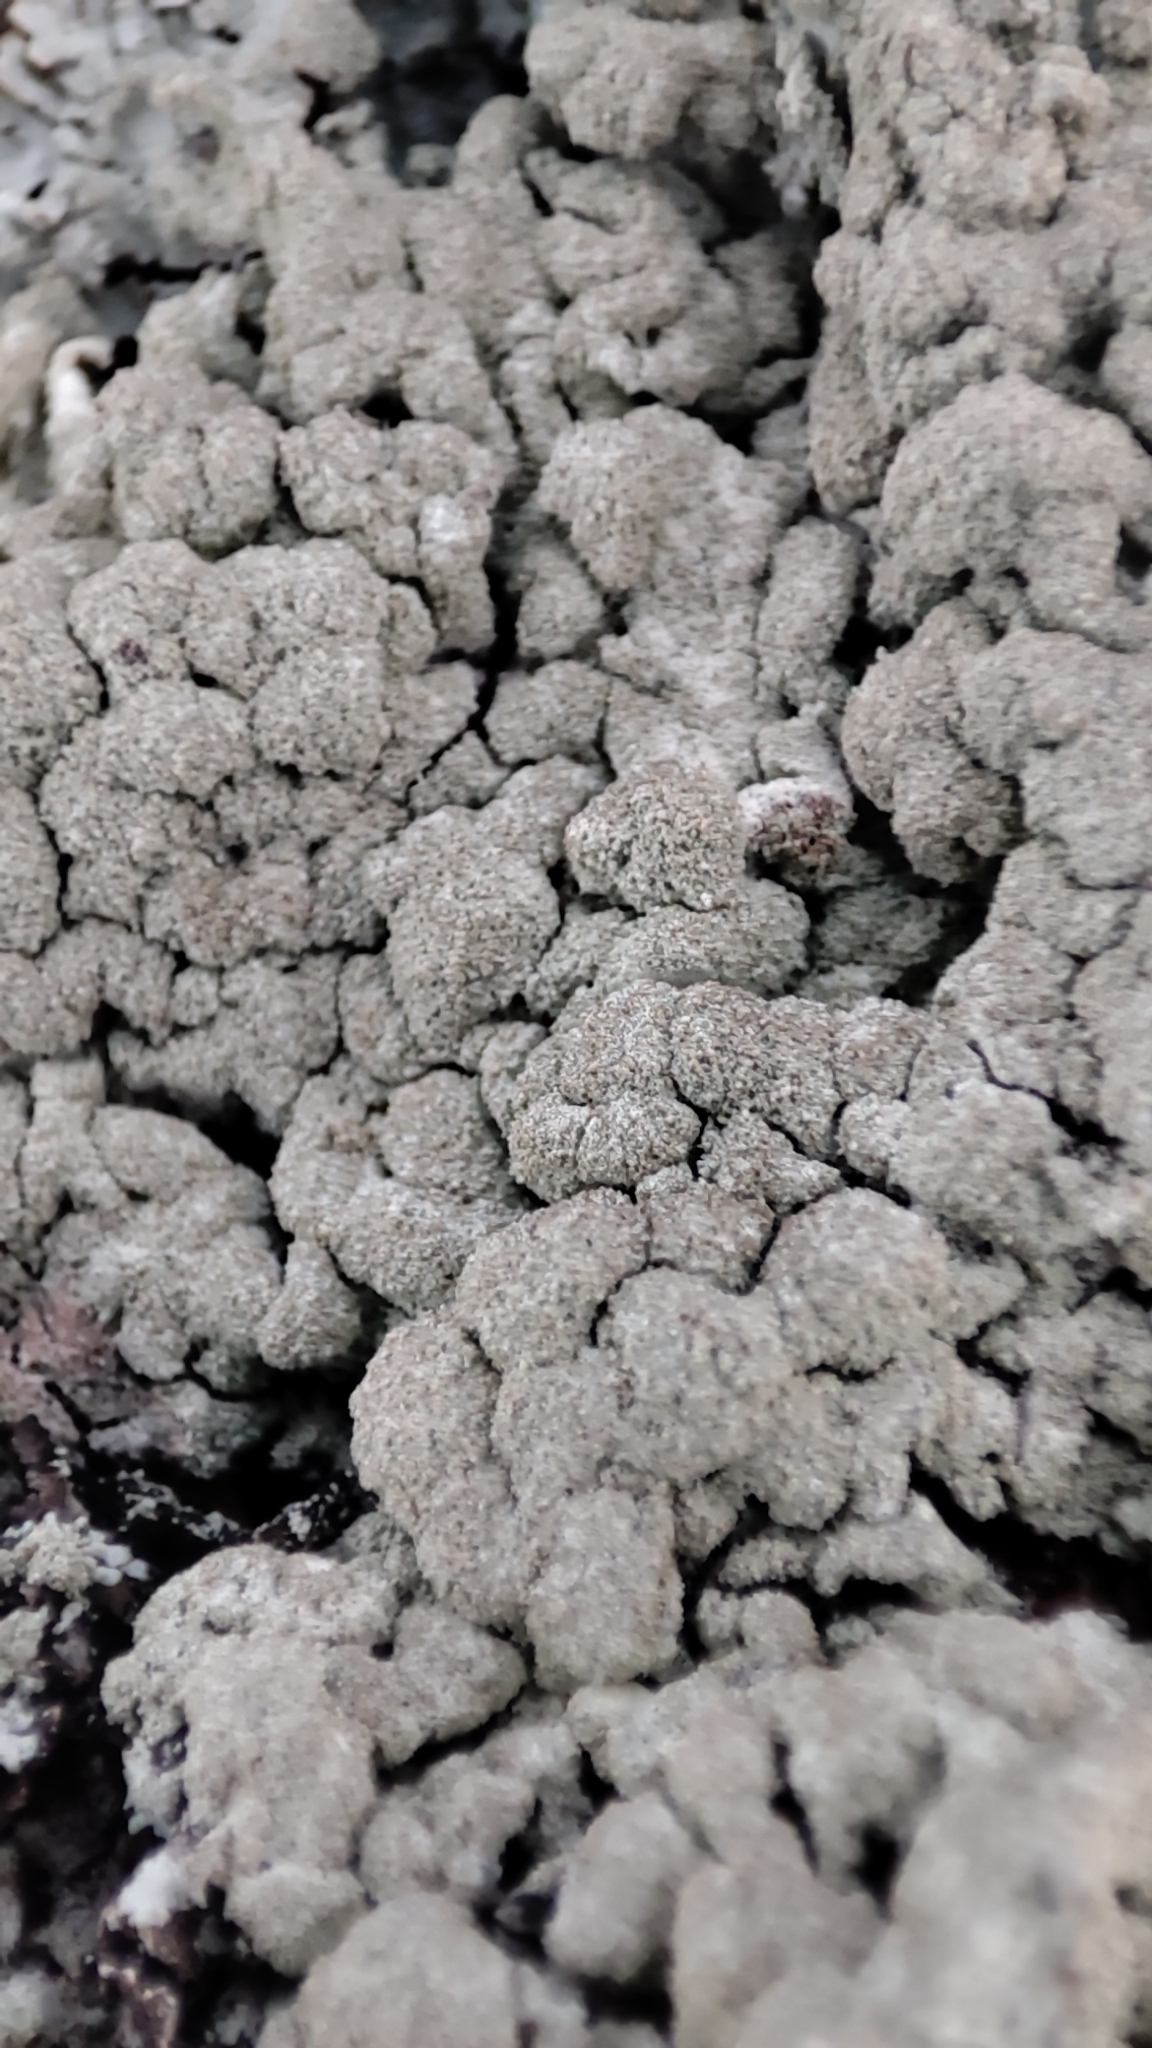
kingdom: Fungi
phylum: Ascomycota
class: Lecanoromycetes
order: Lecanorales
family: Parmeliaceae
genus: Imshaugia
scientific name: Imshaugia aleurites
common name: Salted starburst lichen
